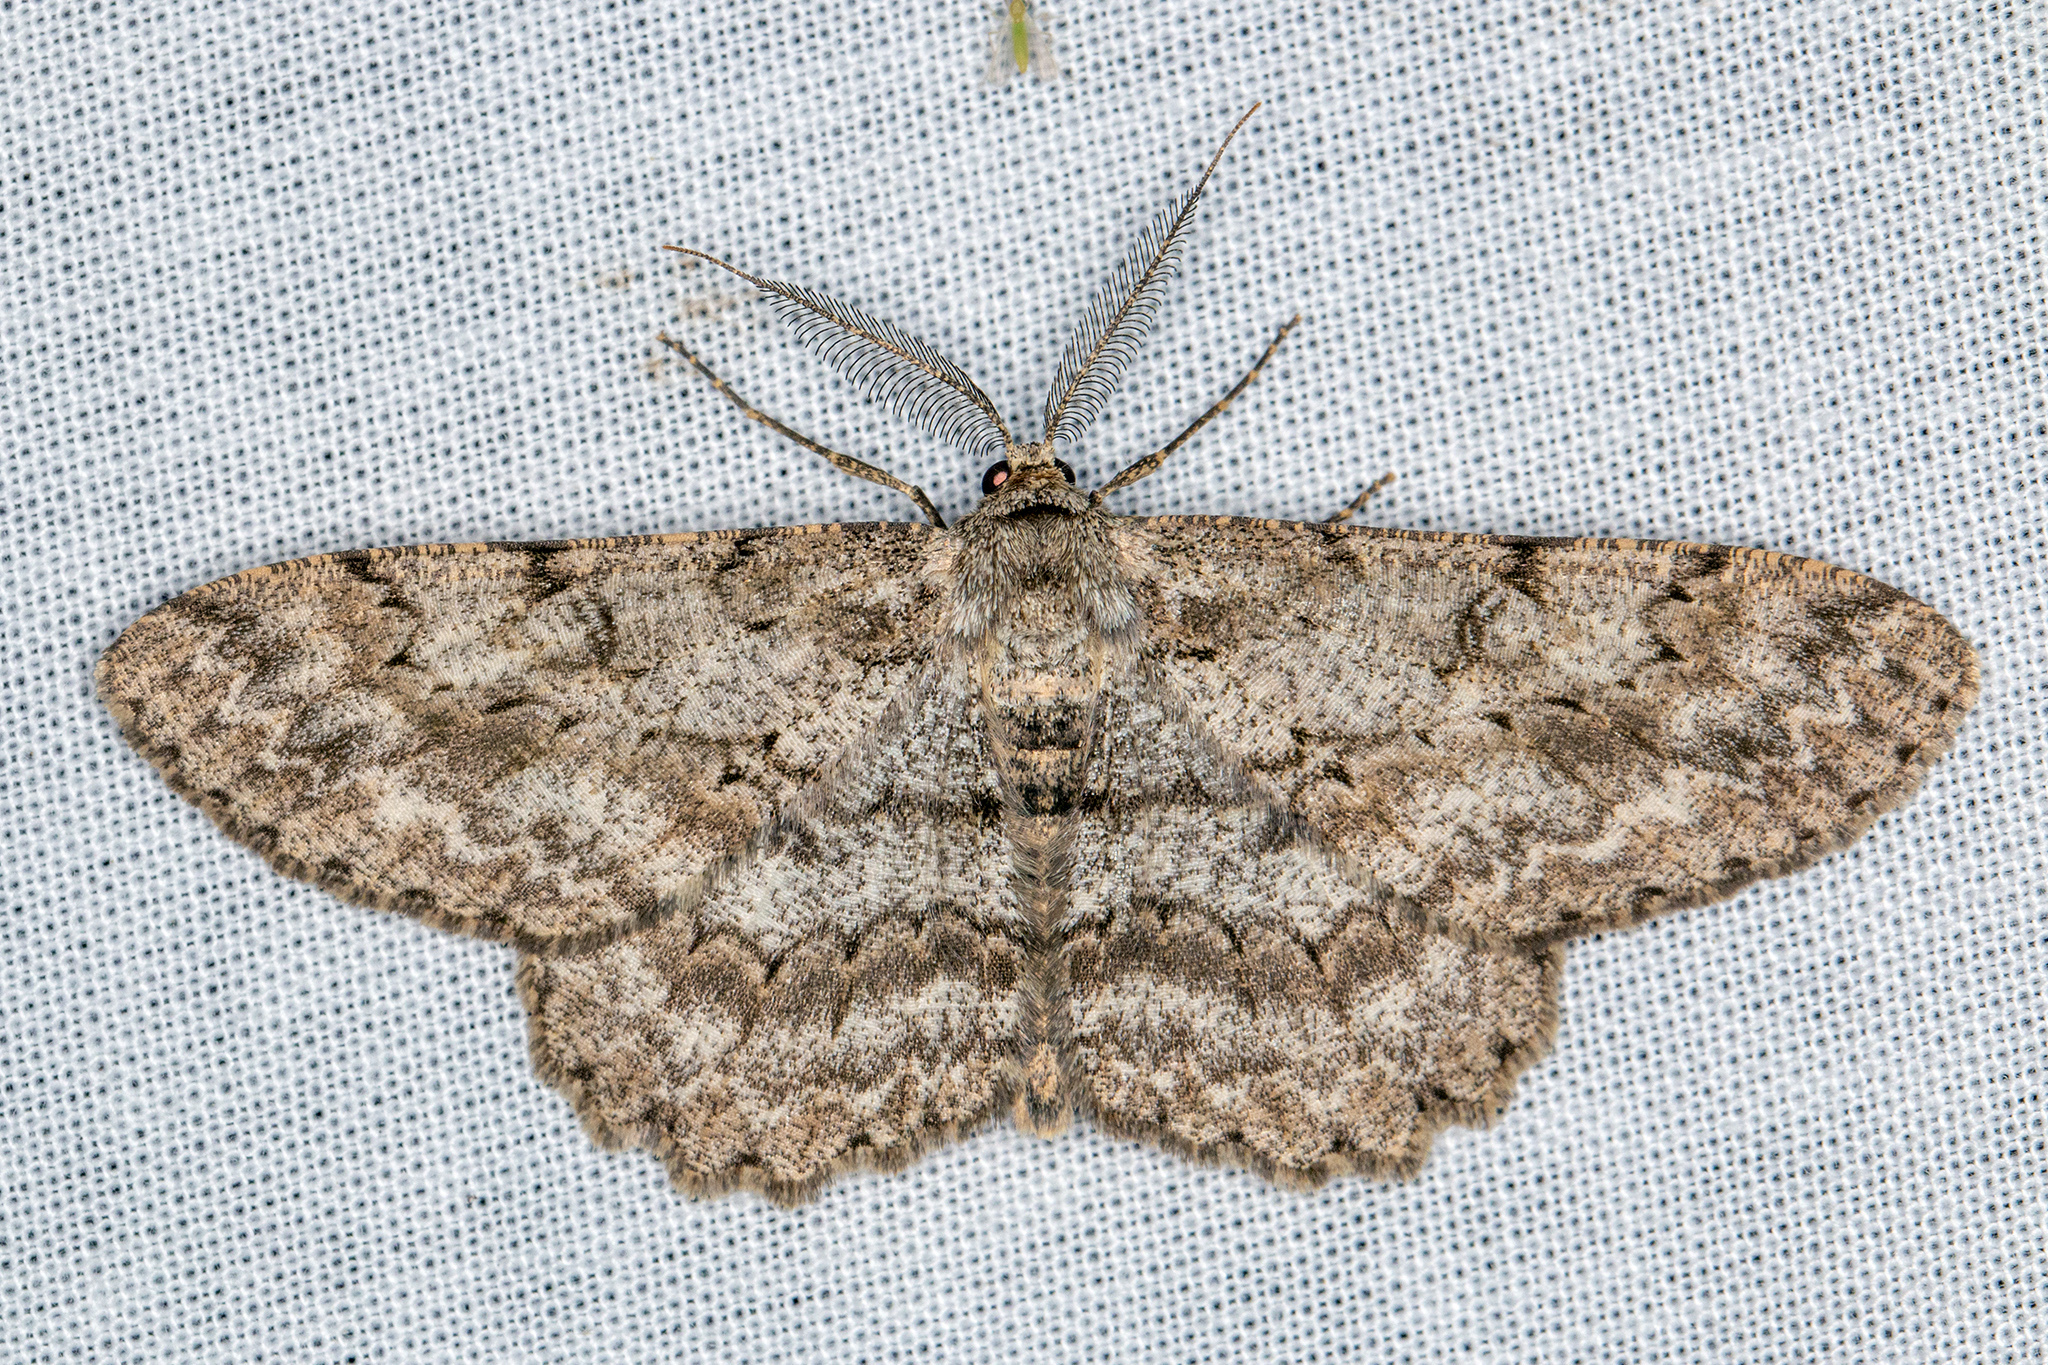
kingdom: Animalia
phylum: Arthropoda
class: Insecta
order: Lepidoptera
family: Geometridae
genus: Hypomecis
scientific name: Hypomecis punctinalis
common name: Pale oak beauty
